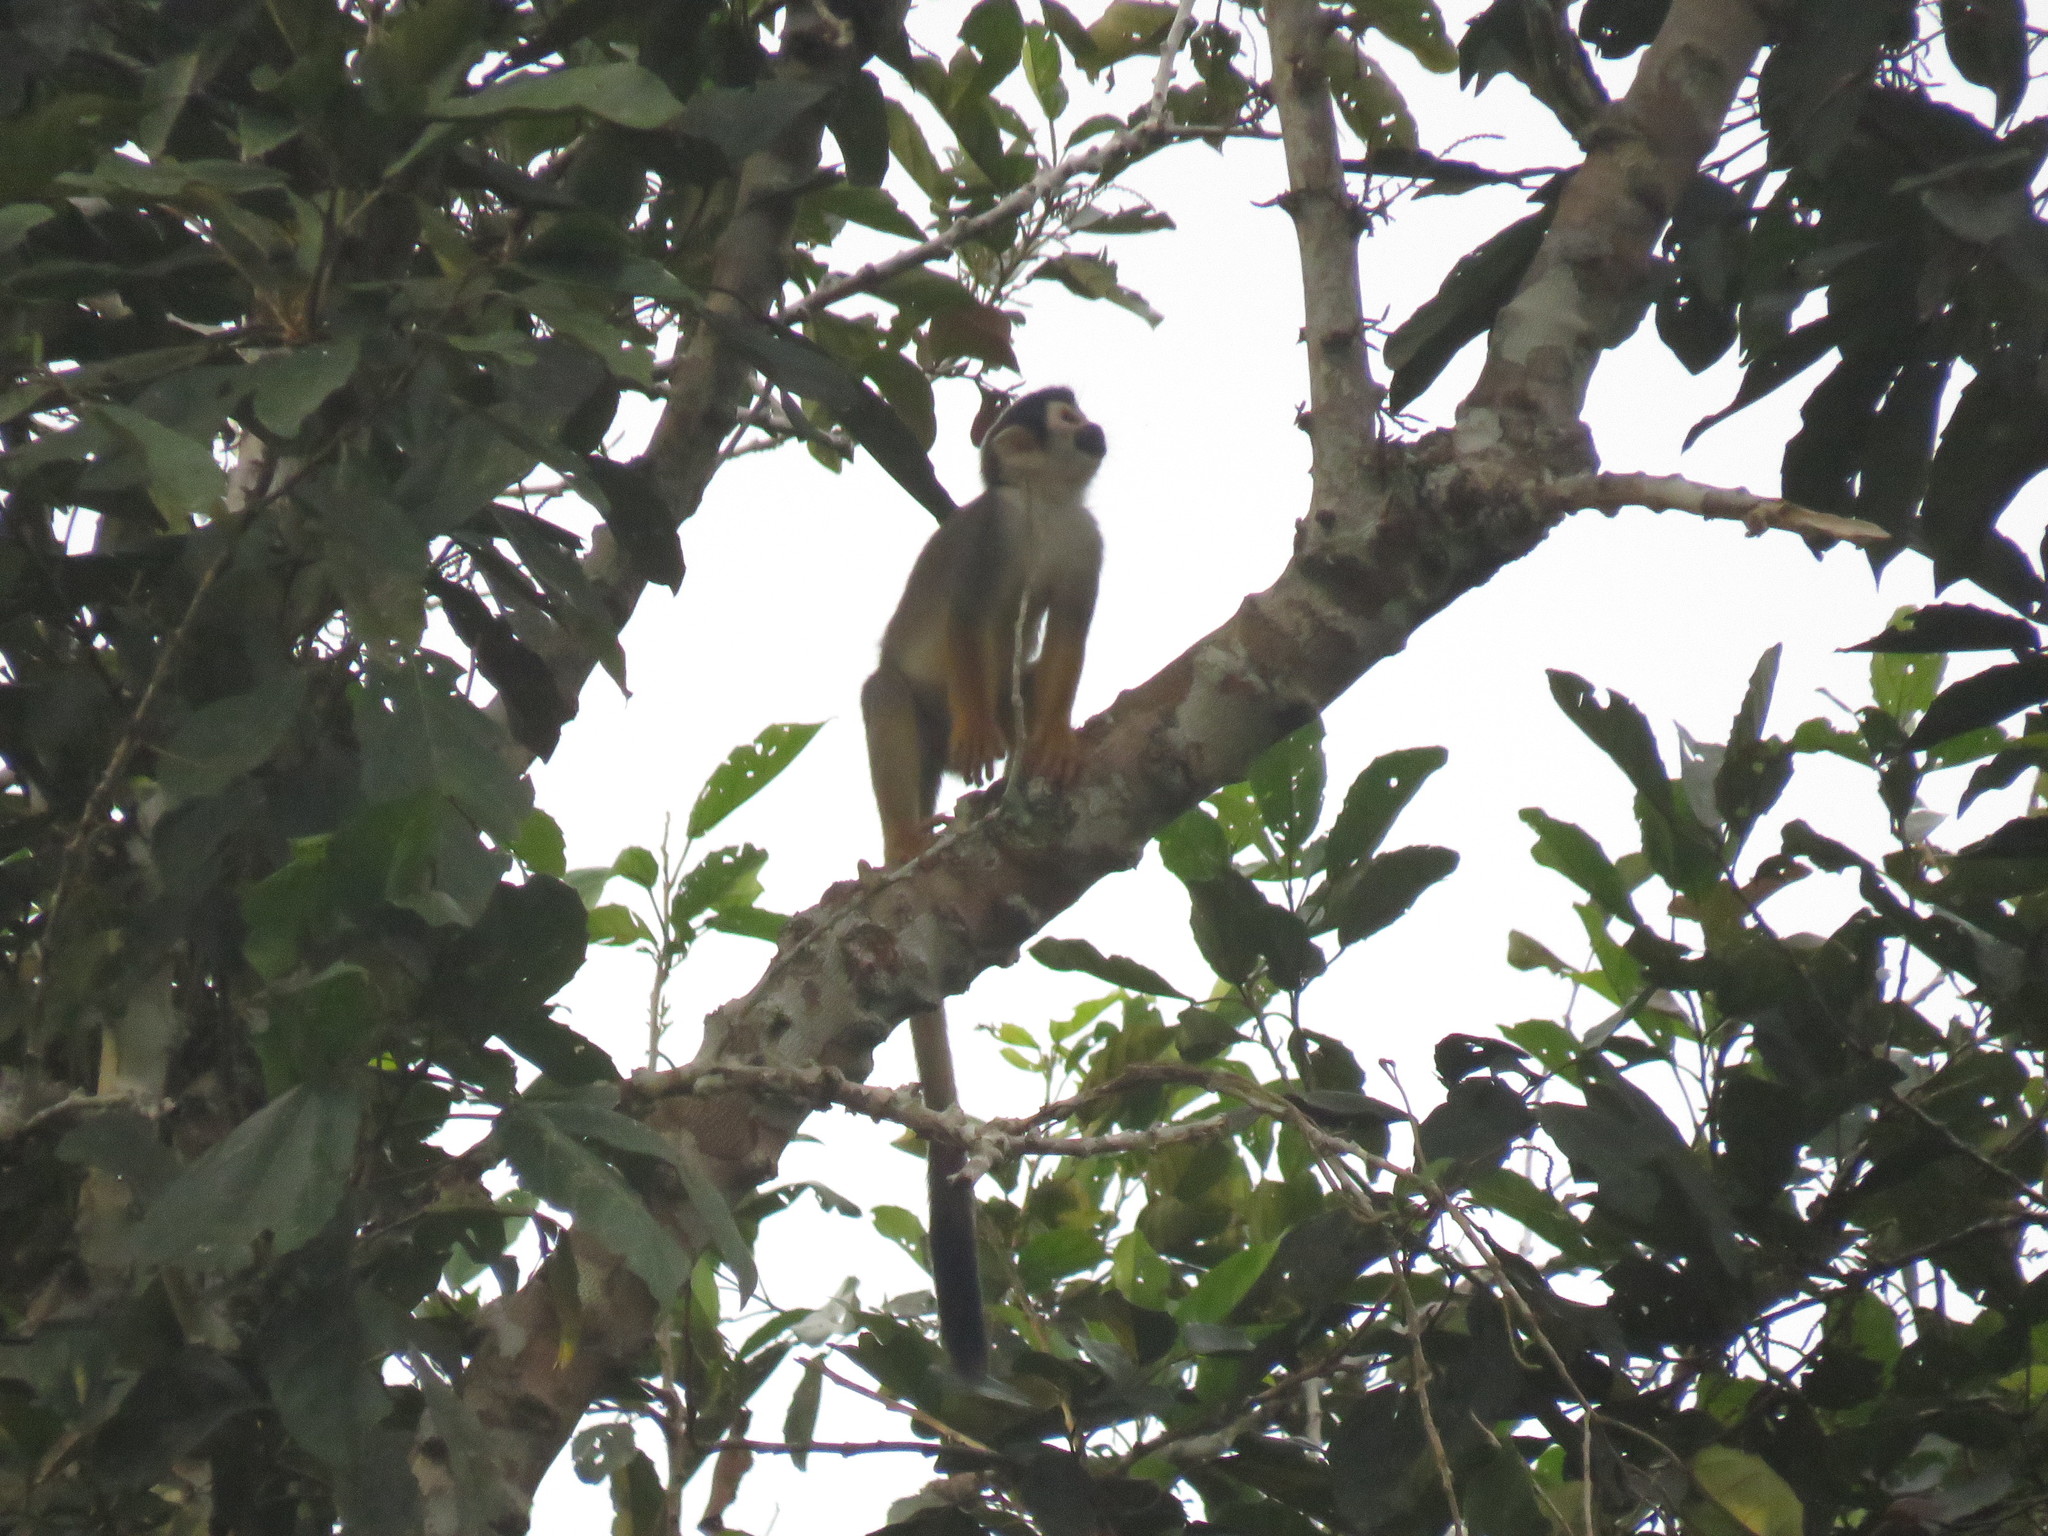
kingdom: Animalia
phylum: Chordata
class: Mammalia
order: Primates
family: Cebidae
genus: Saimiri
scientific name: Saimiri cassiquiarensis
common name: Humboldt’s squirrel monkey
